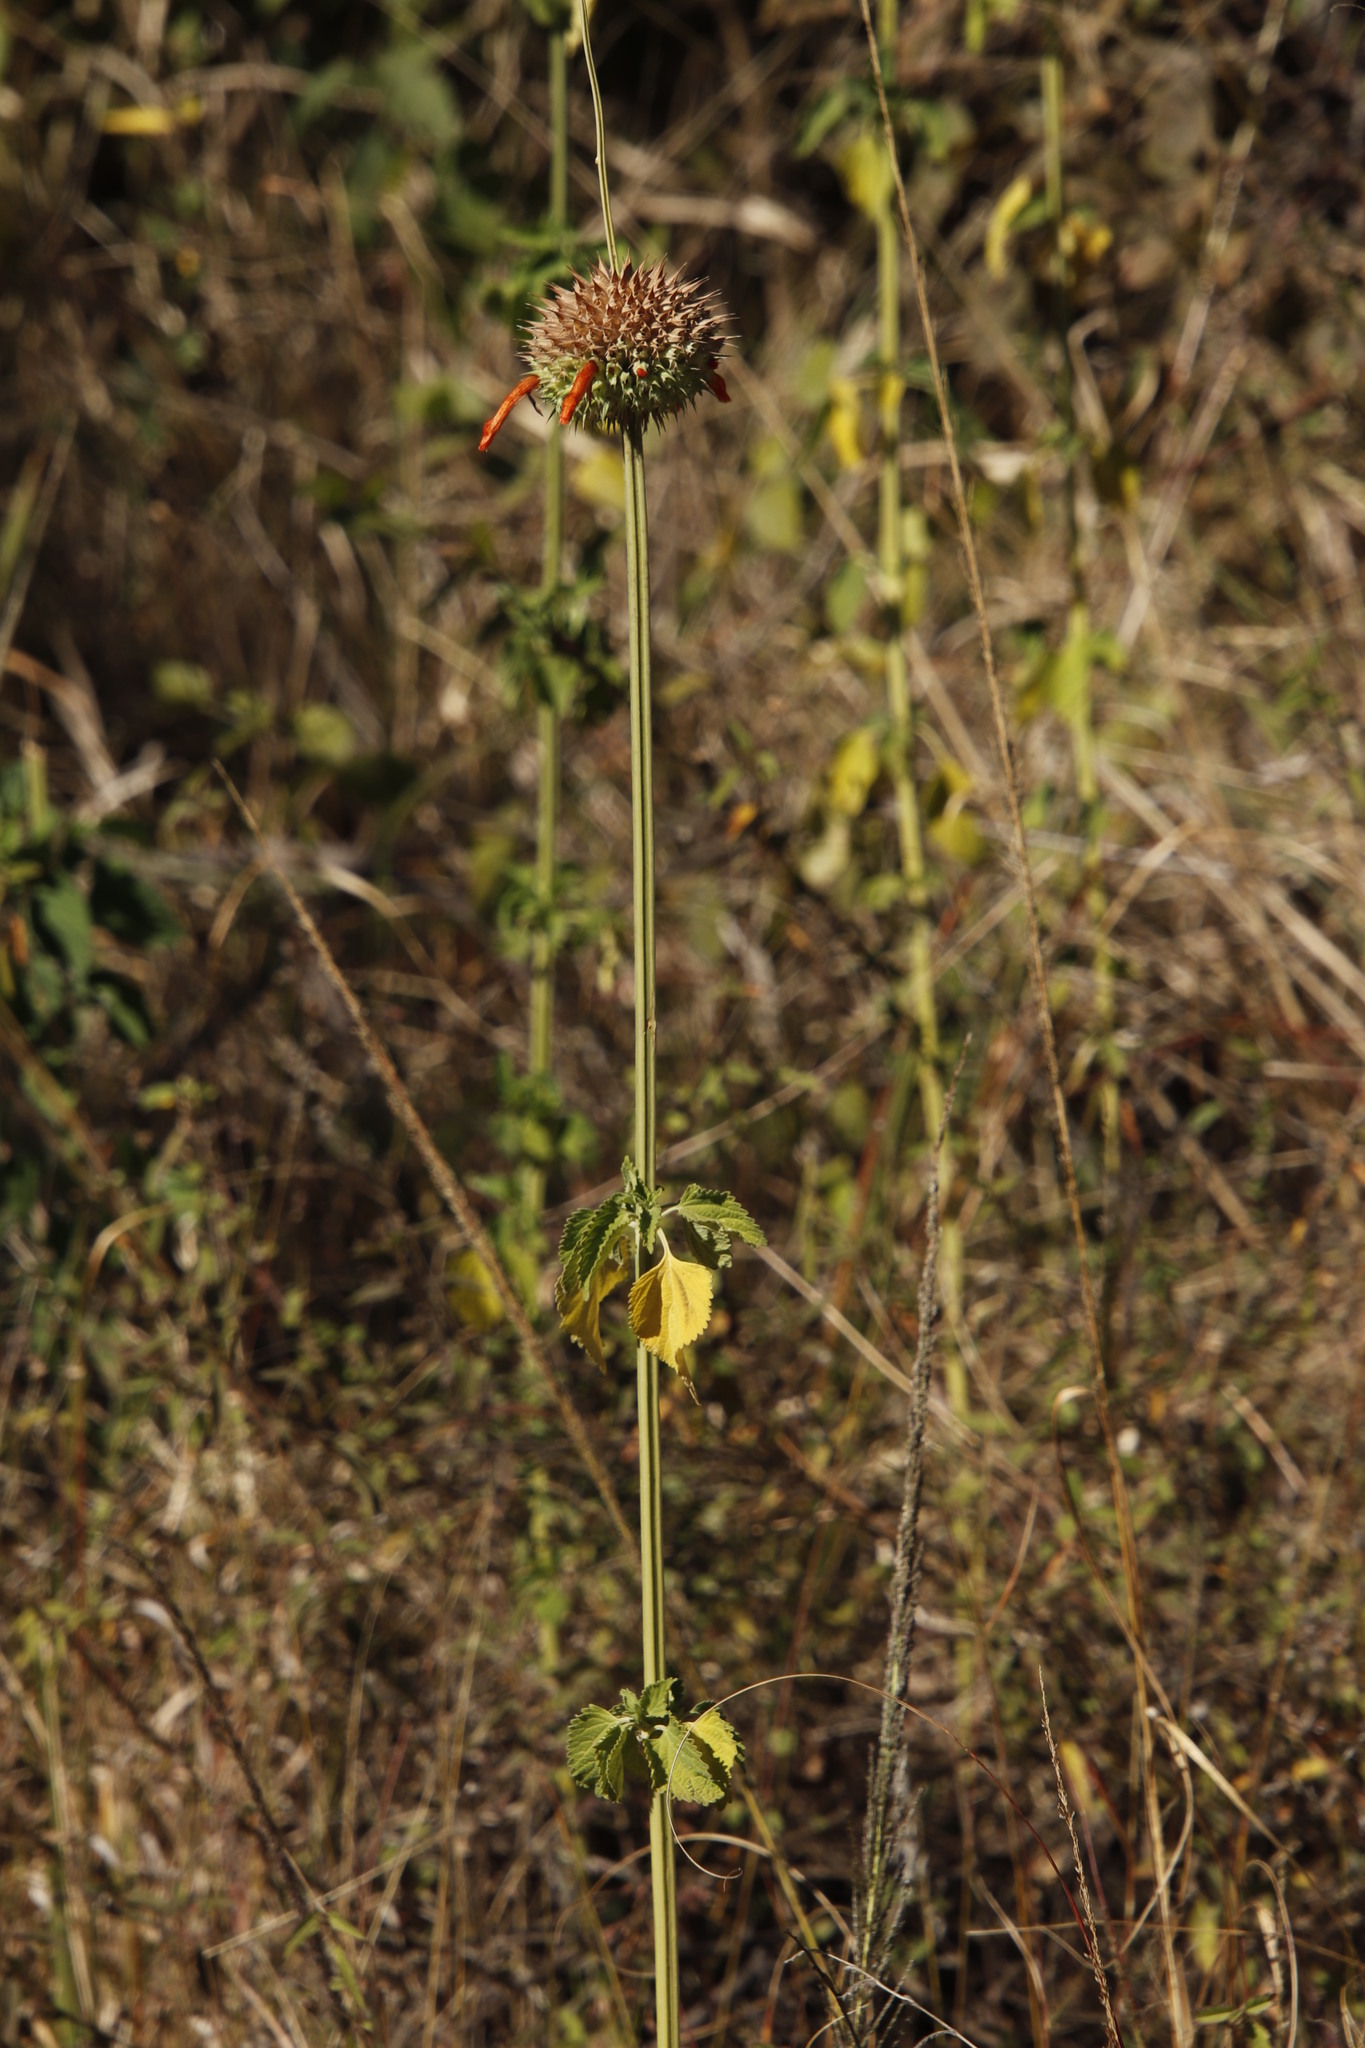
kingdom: Plantae
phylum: Tracheophyta
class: Magnoliopsida
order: Lamiales
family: Lamiaceae
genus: Leonotis
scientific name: Leonotis nepetifolia
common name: Christmas candlestick
